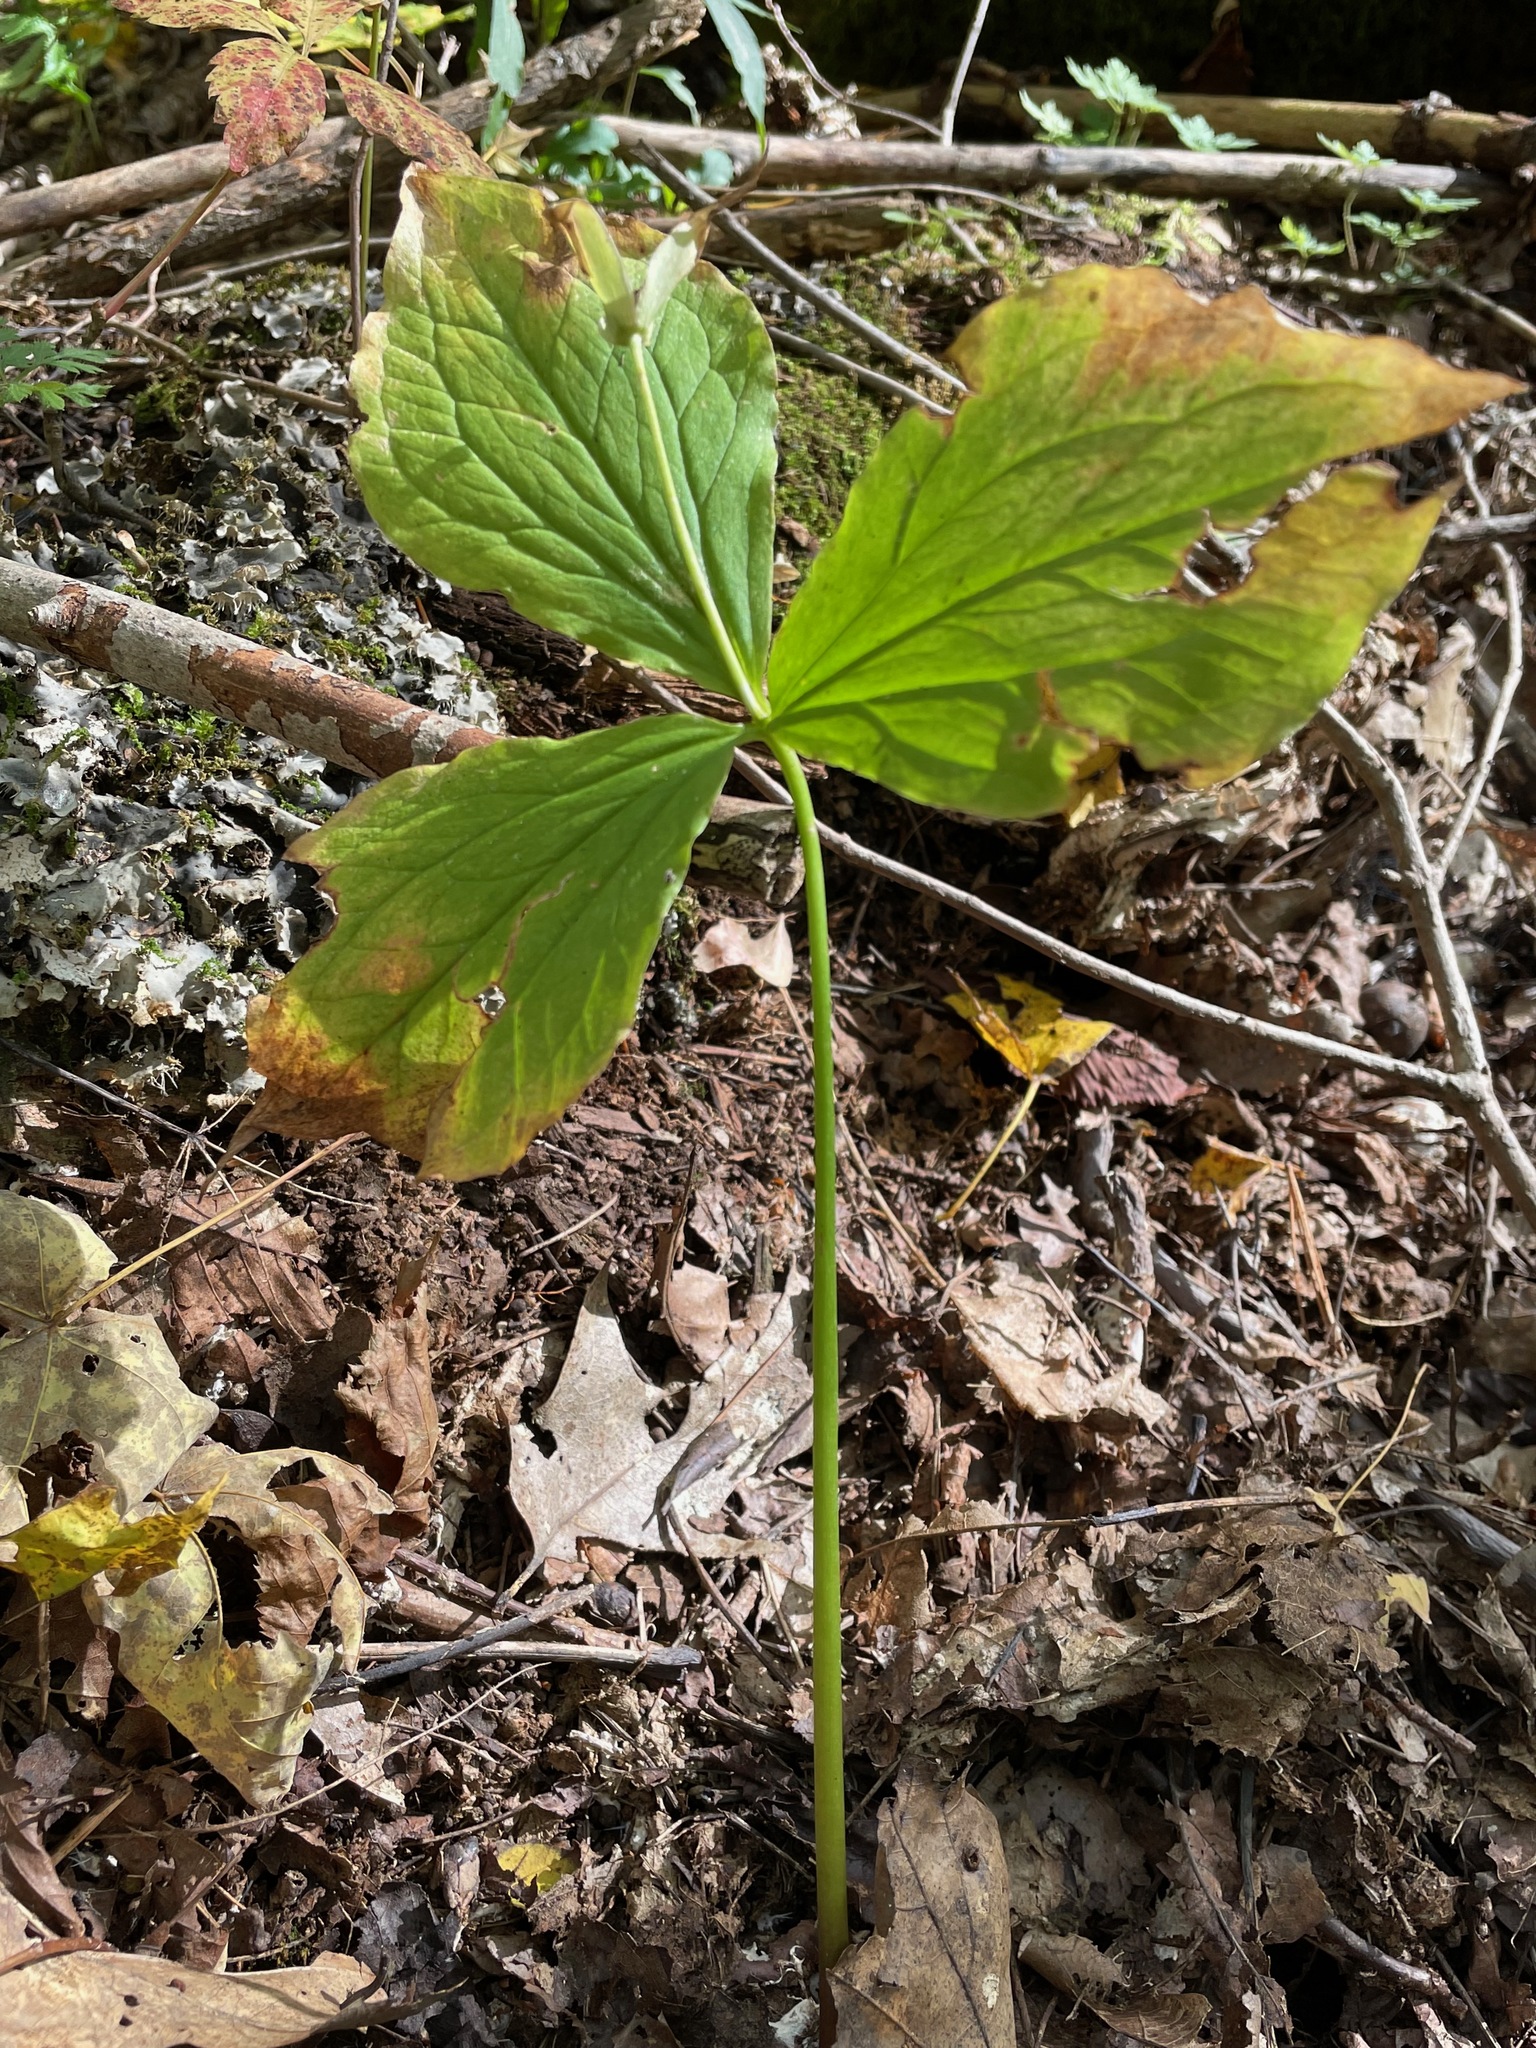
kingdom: Plantae
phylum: Tracheophyta
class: Liliopsida
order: Liliales
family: Melanthiaceae
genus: Trillium
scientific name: Trillium grandiflorum
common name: Great white trillium
